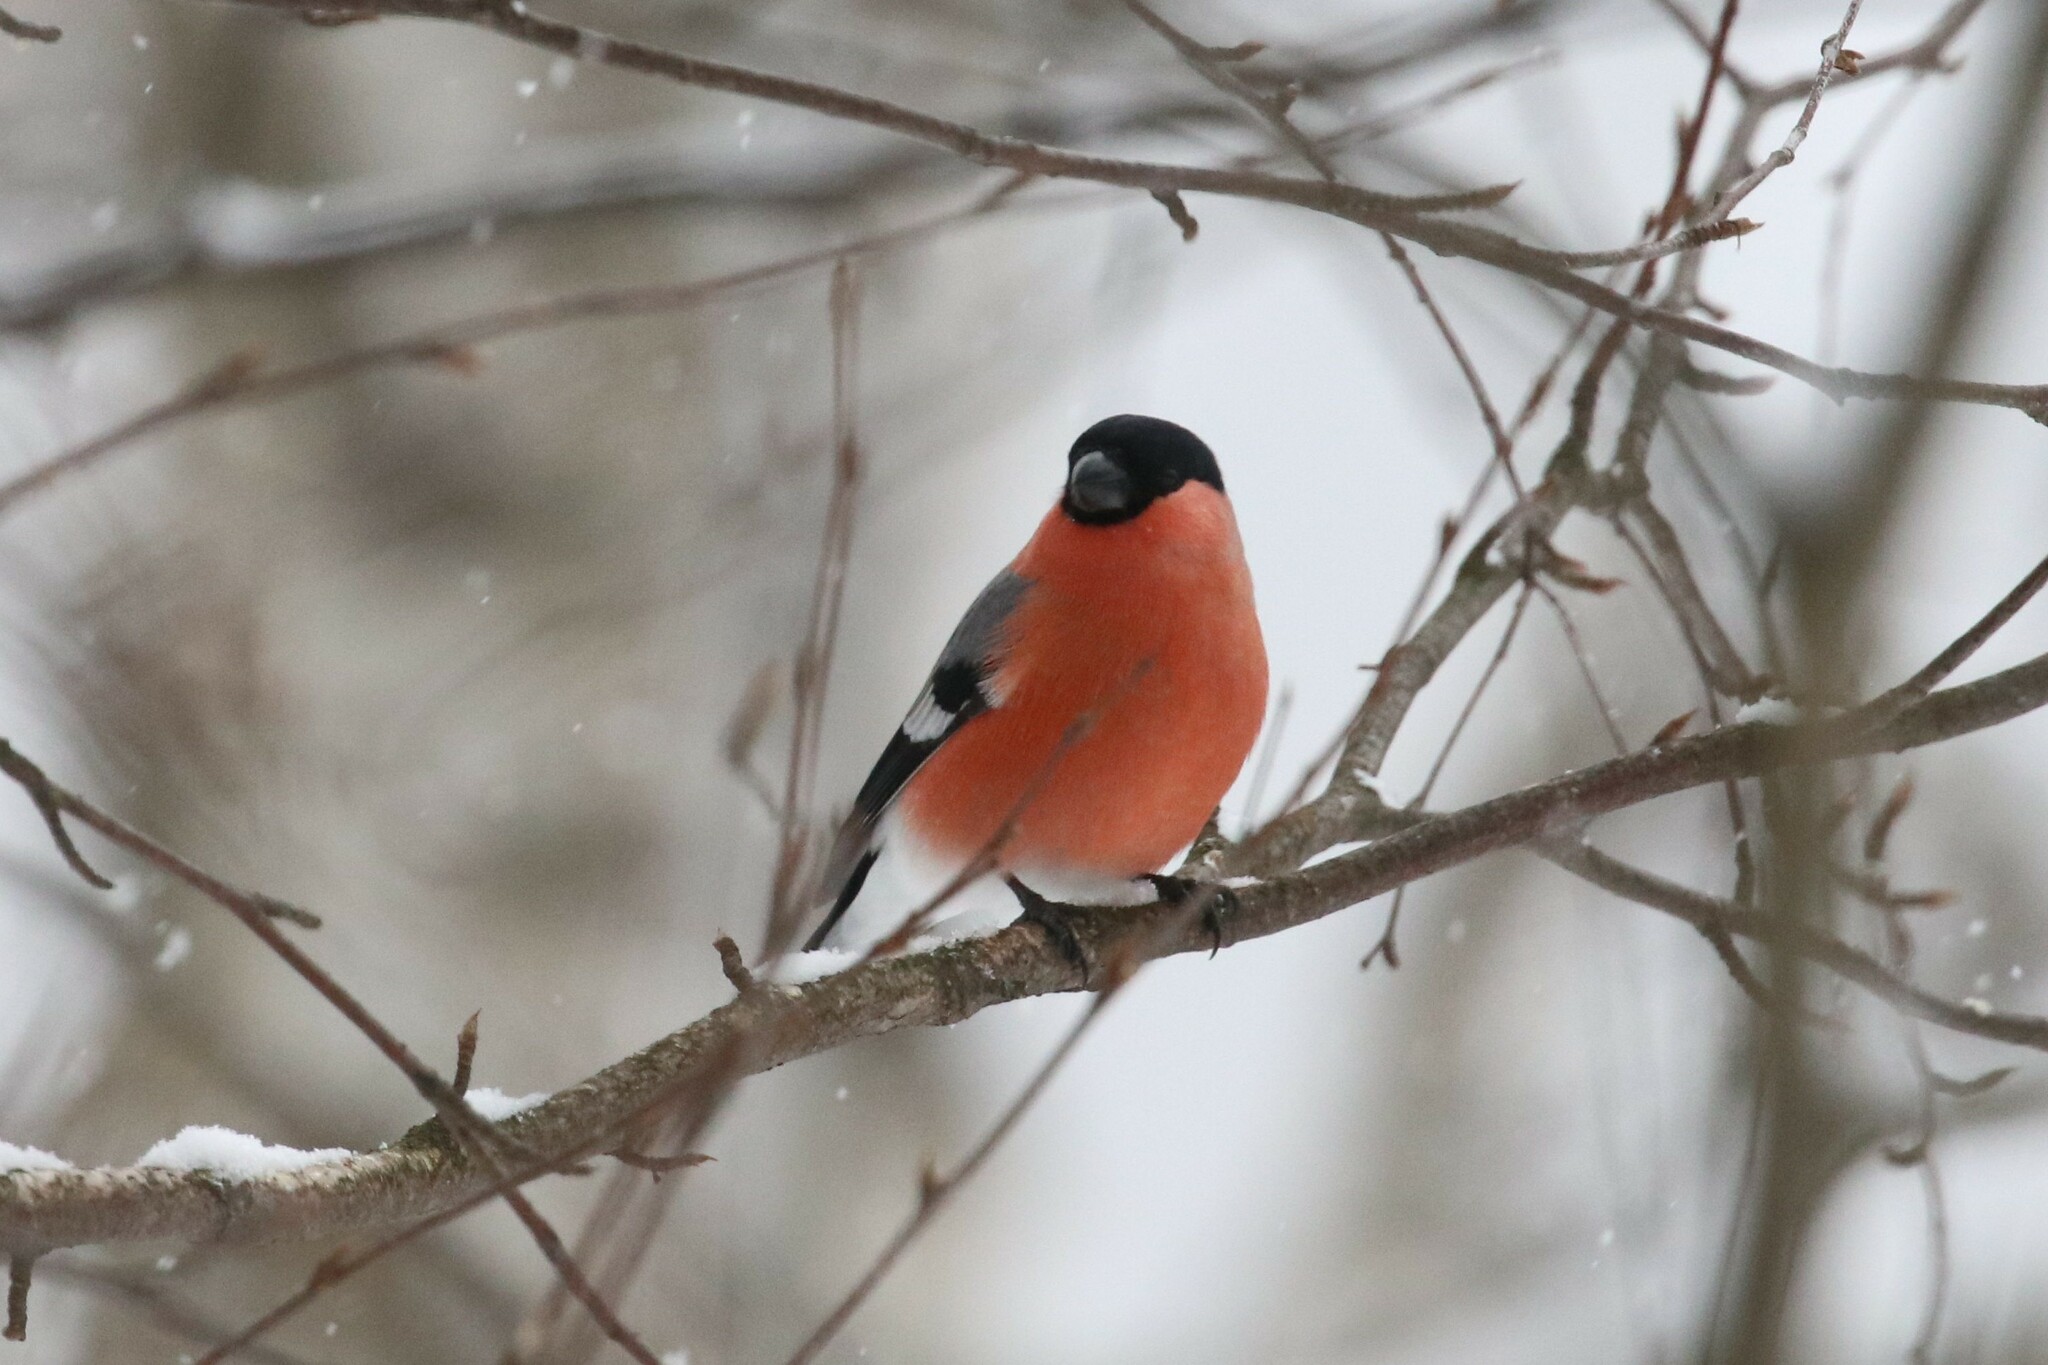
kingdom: Animalia
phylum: Chordata
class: Aves
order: Passeriformes
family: Fringillidae
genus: Pyrrhula
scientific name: Pyrrhula pyrrhula
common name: Eurasian bullfinch
